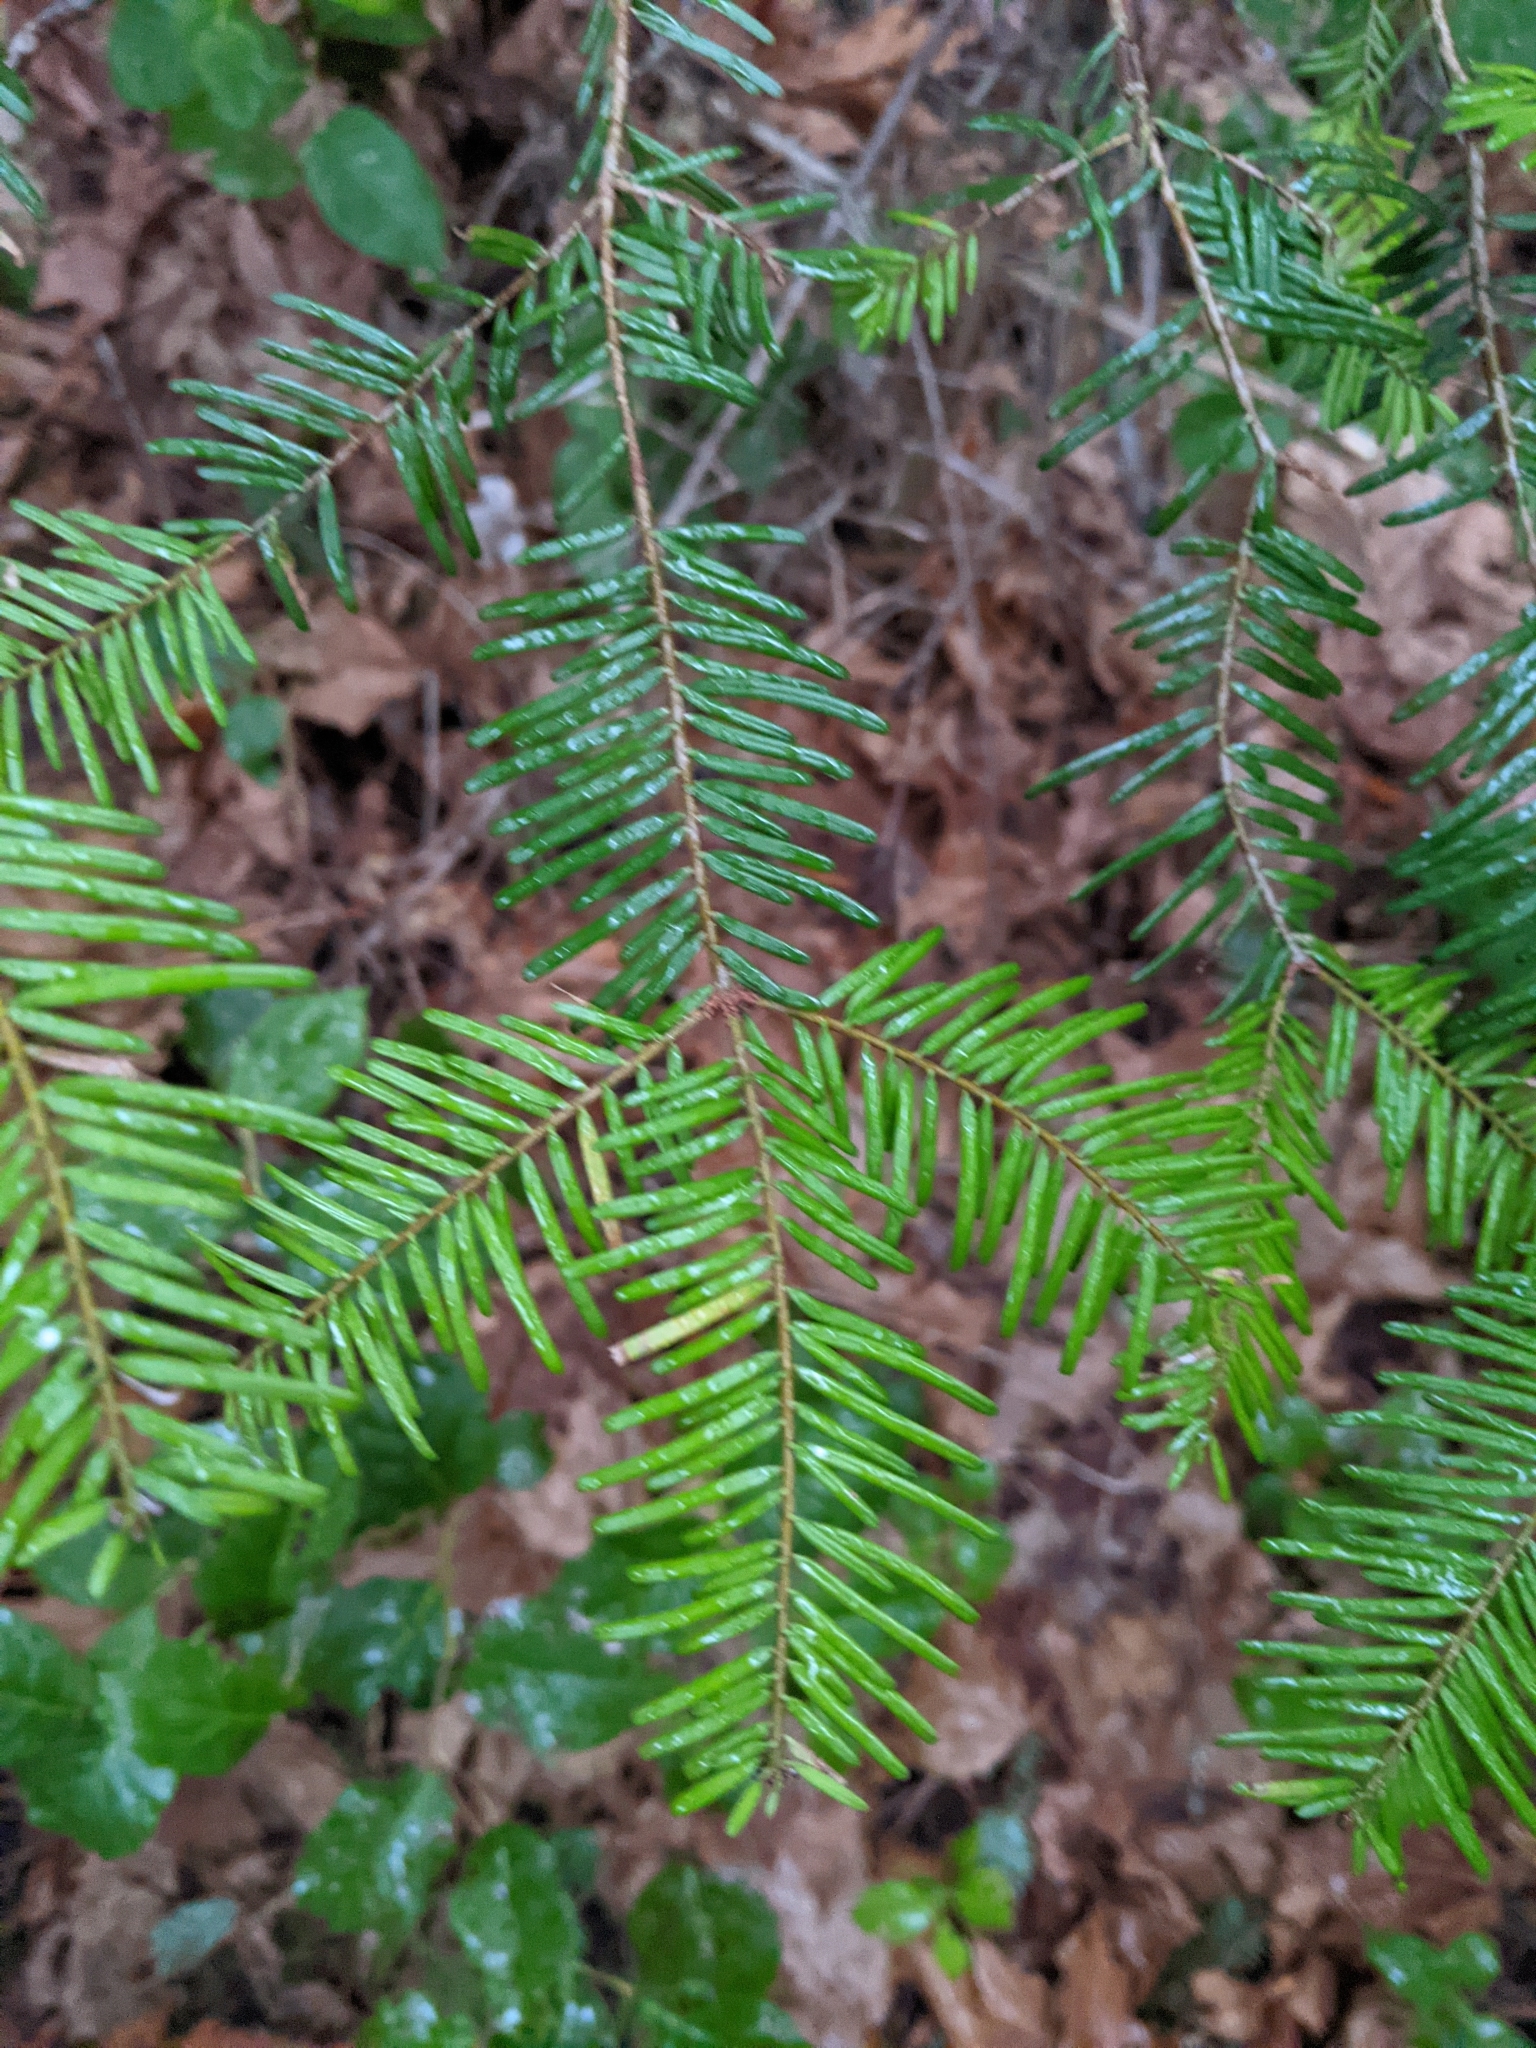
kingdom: Plantae
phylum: Tracheophyta
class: Pinopsida
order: Pinales
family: Pinaceae
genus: Abies
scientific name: Abies grandis
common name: Giant fir
